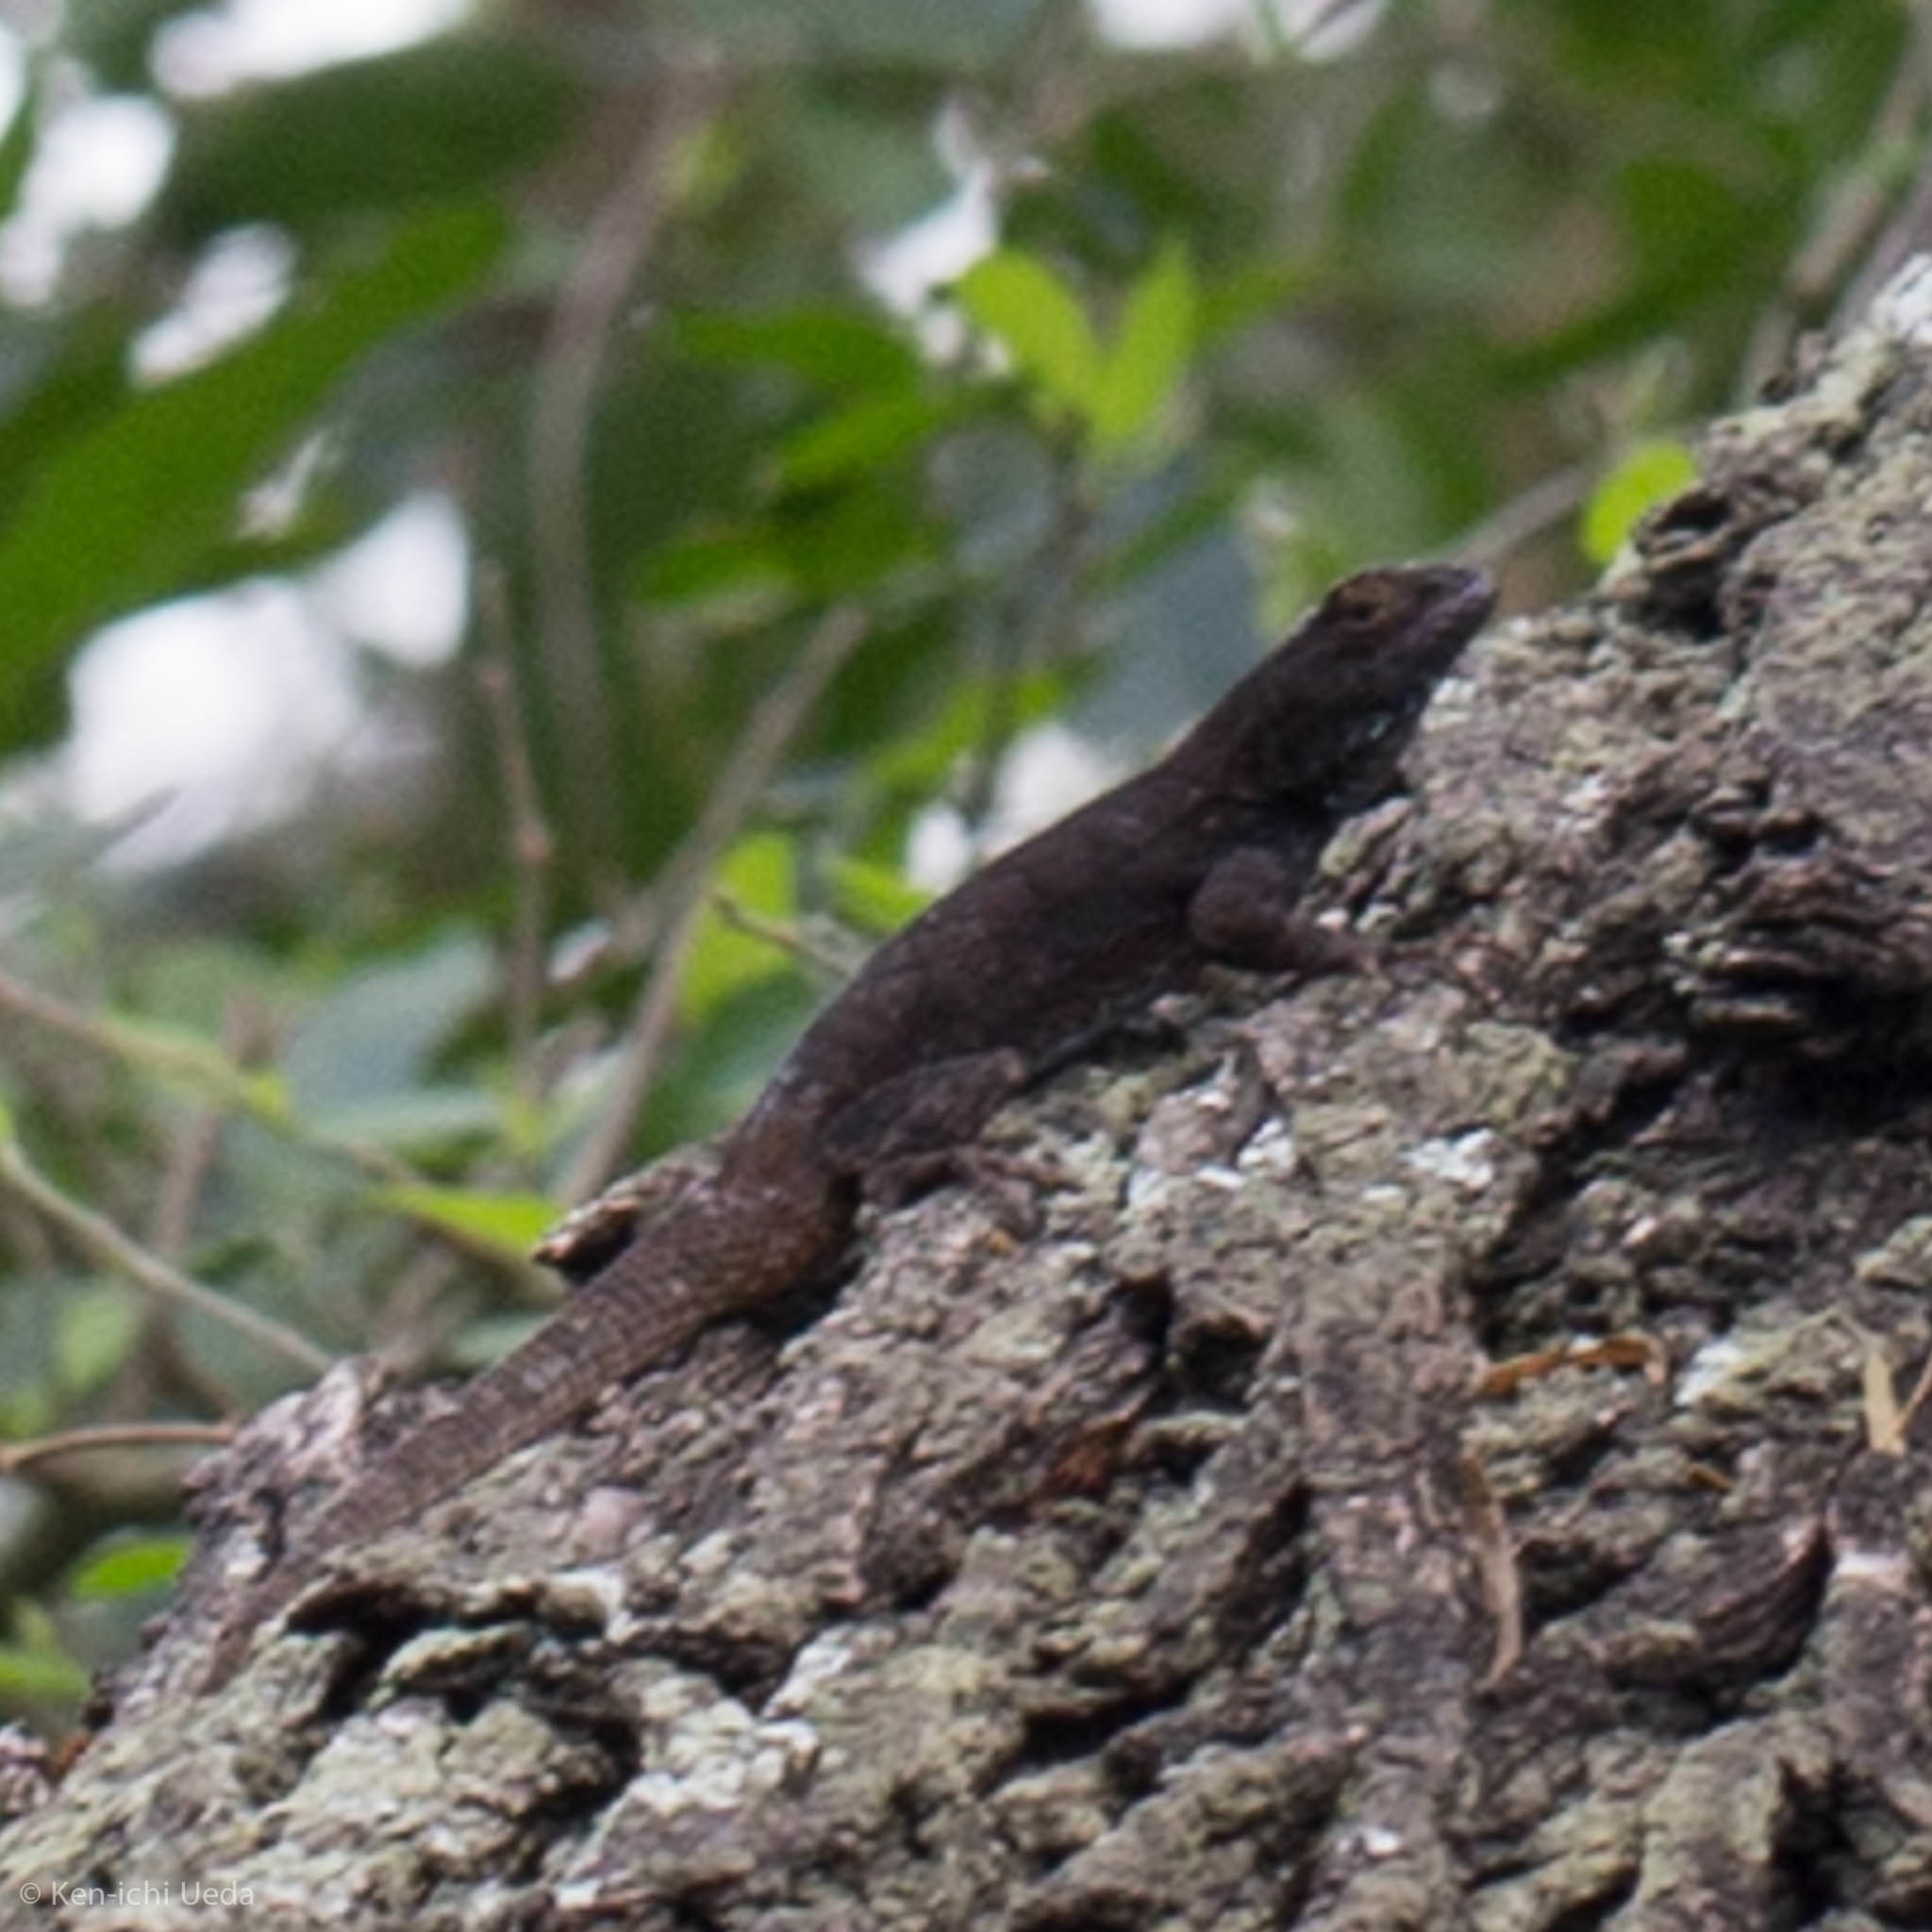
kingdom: Animalia
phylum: Chordata
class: Squamata
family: Phrynosomatidae
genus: Sceloporus
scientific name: Sceloporus grammicus
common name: Mesquite lizard
